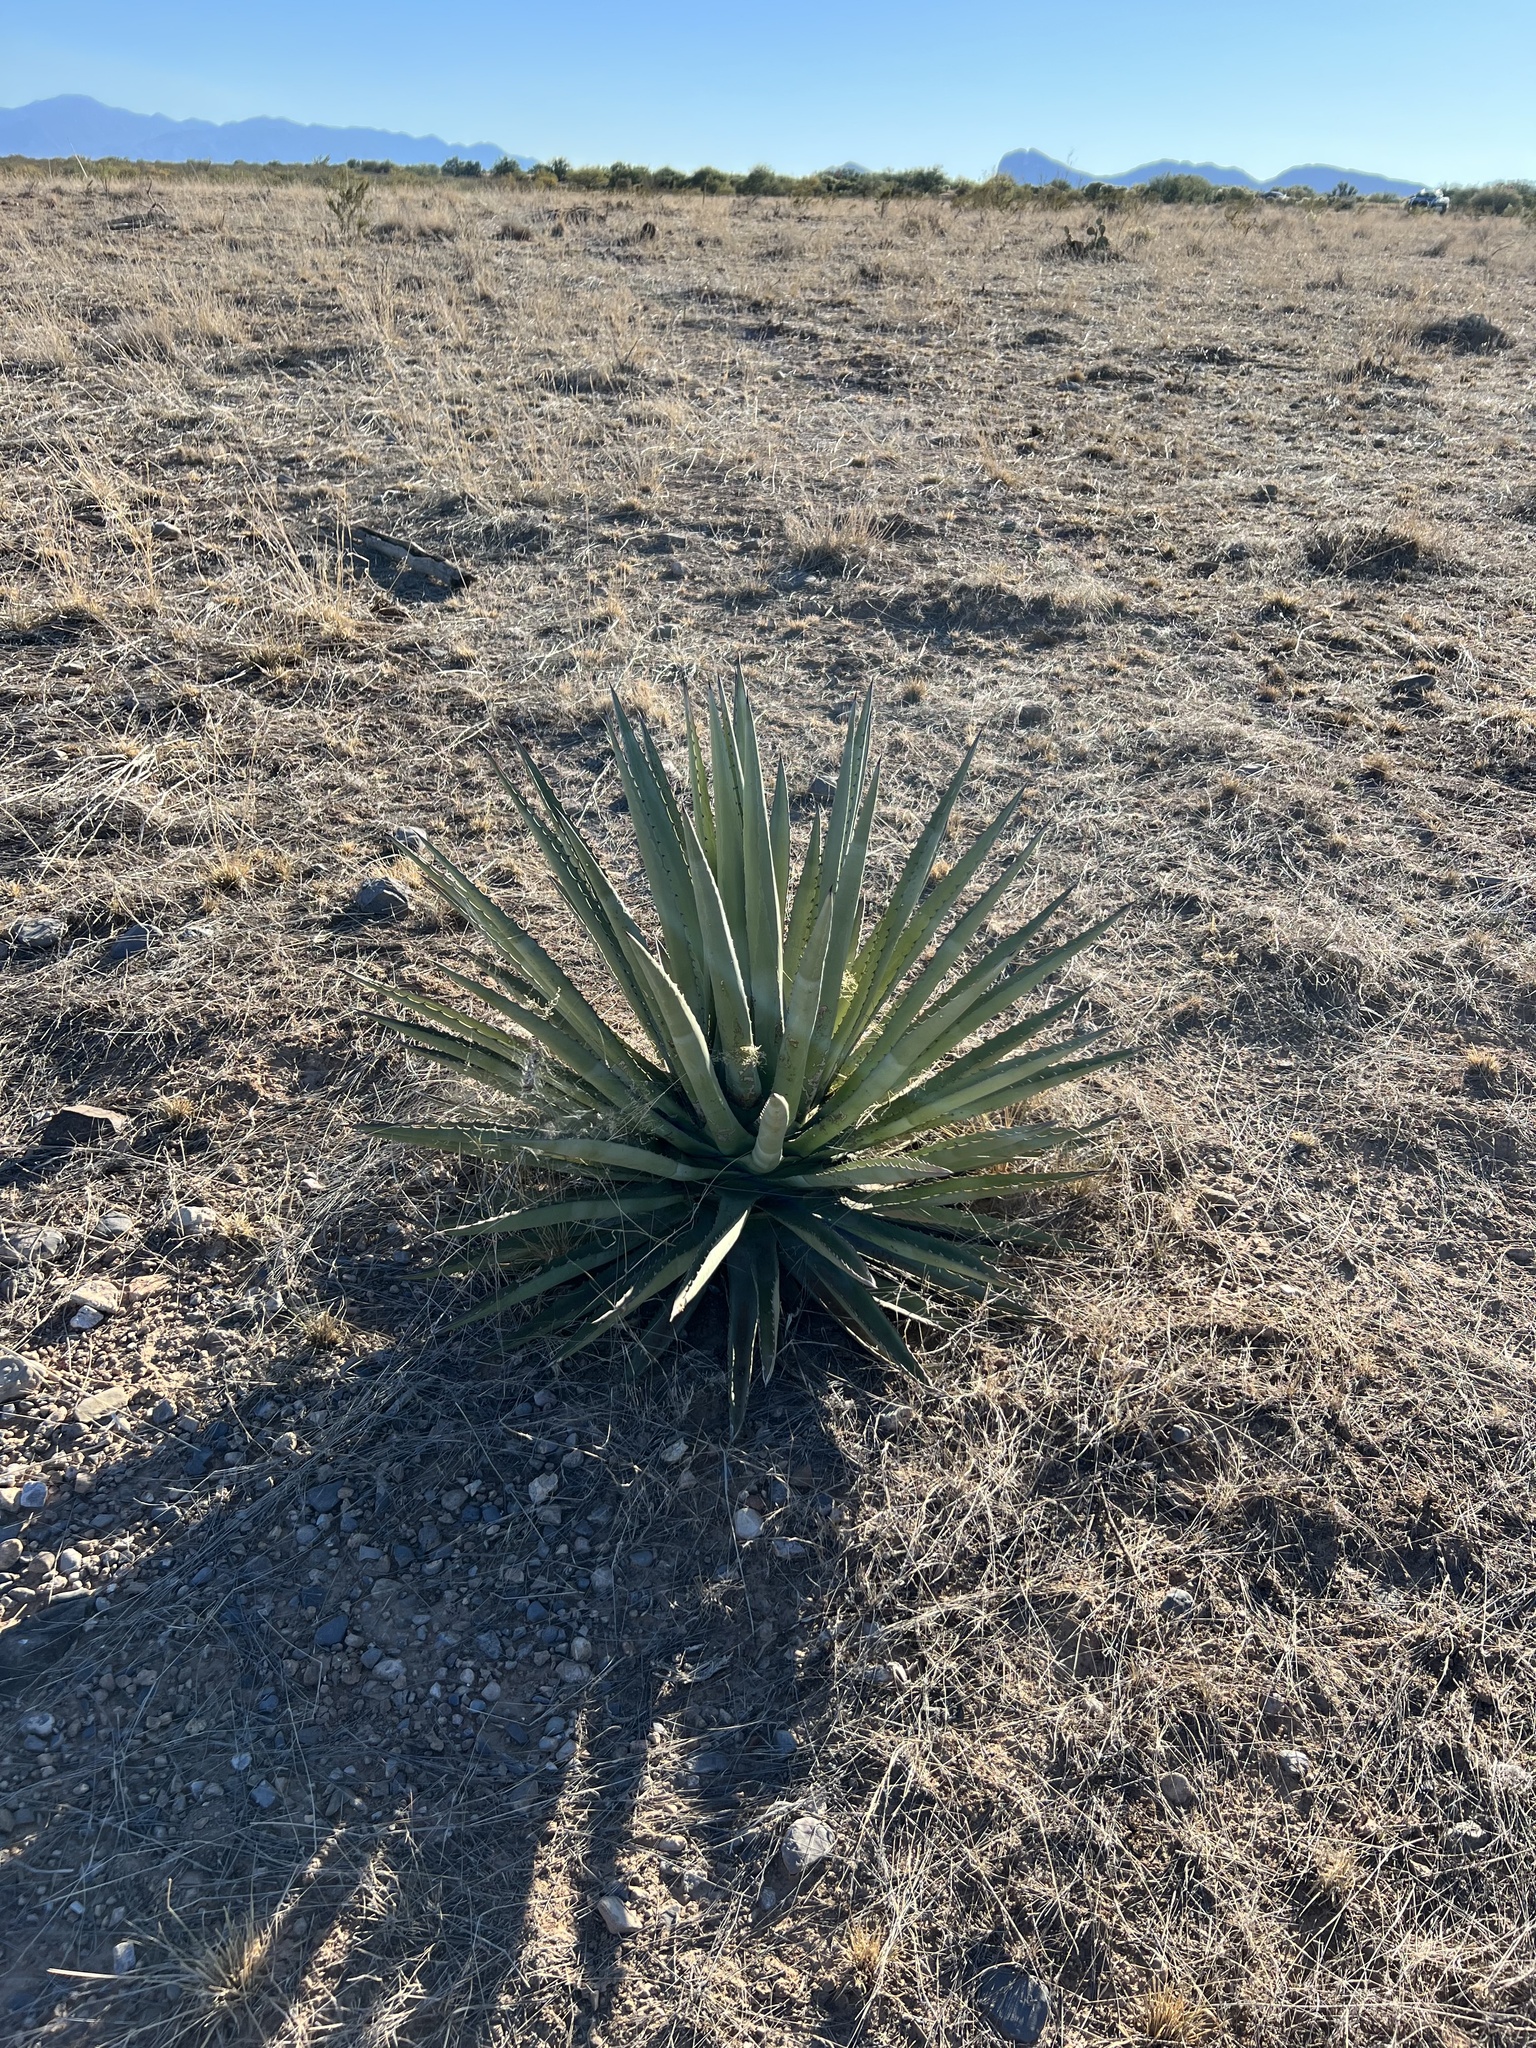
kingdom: Plantae
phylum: Tracheophyta
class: Liliopsida
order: Asparagales
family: Asparagaceae
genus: Agave
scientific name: Agave palmeri
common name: Palmer agave
